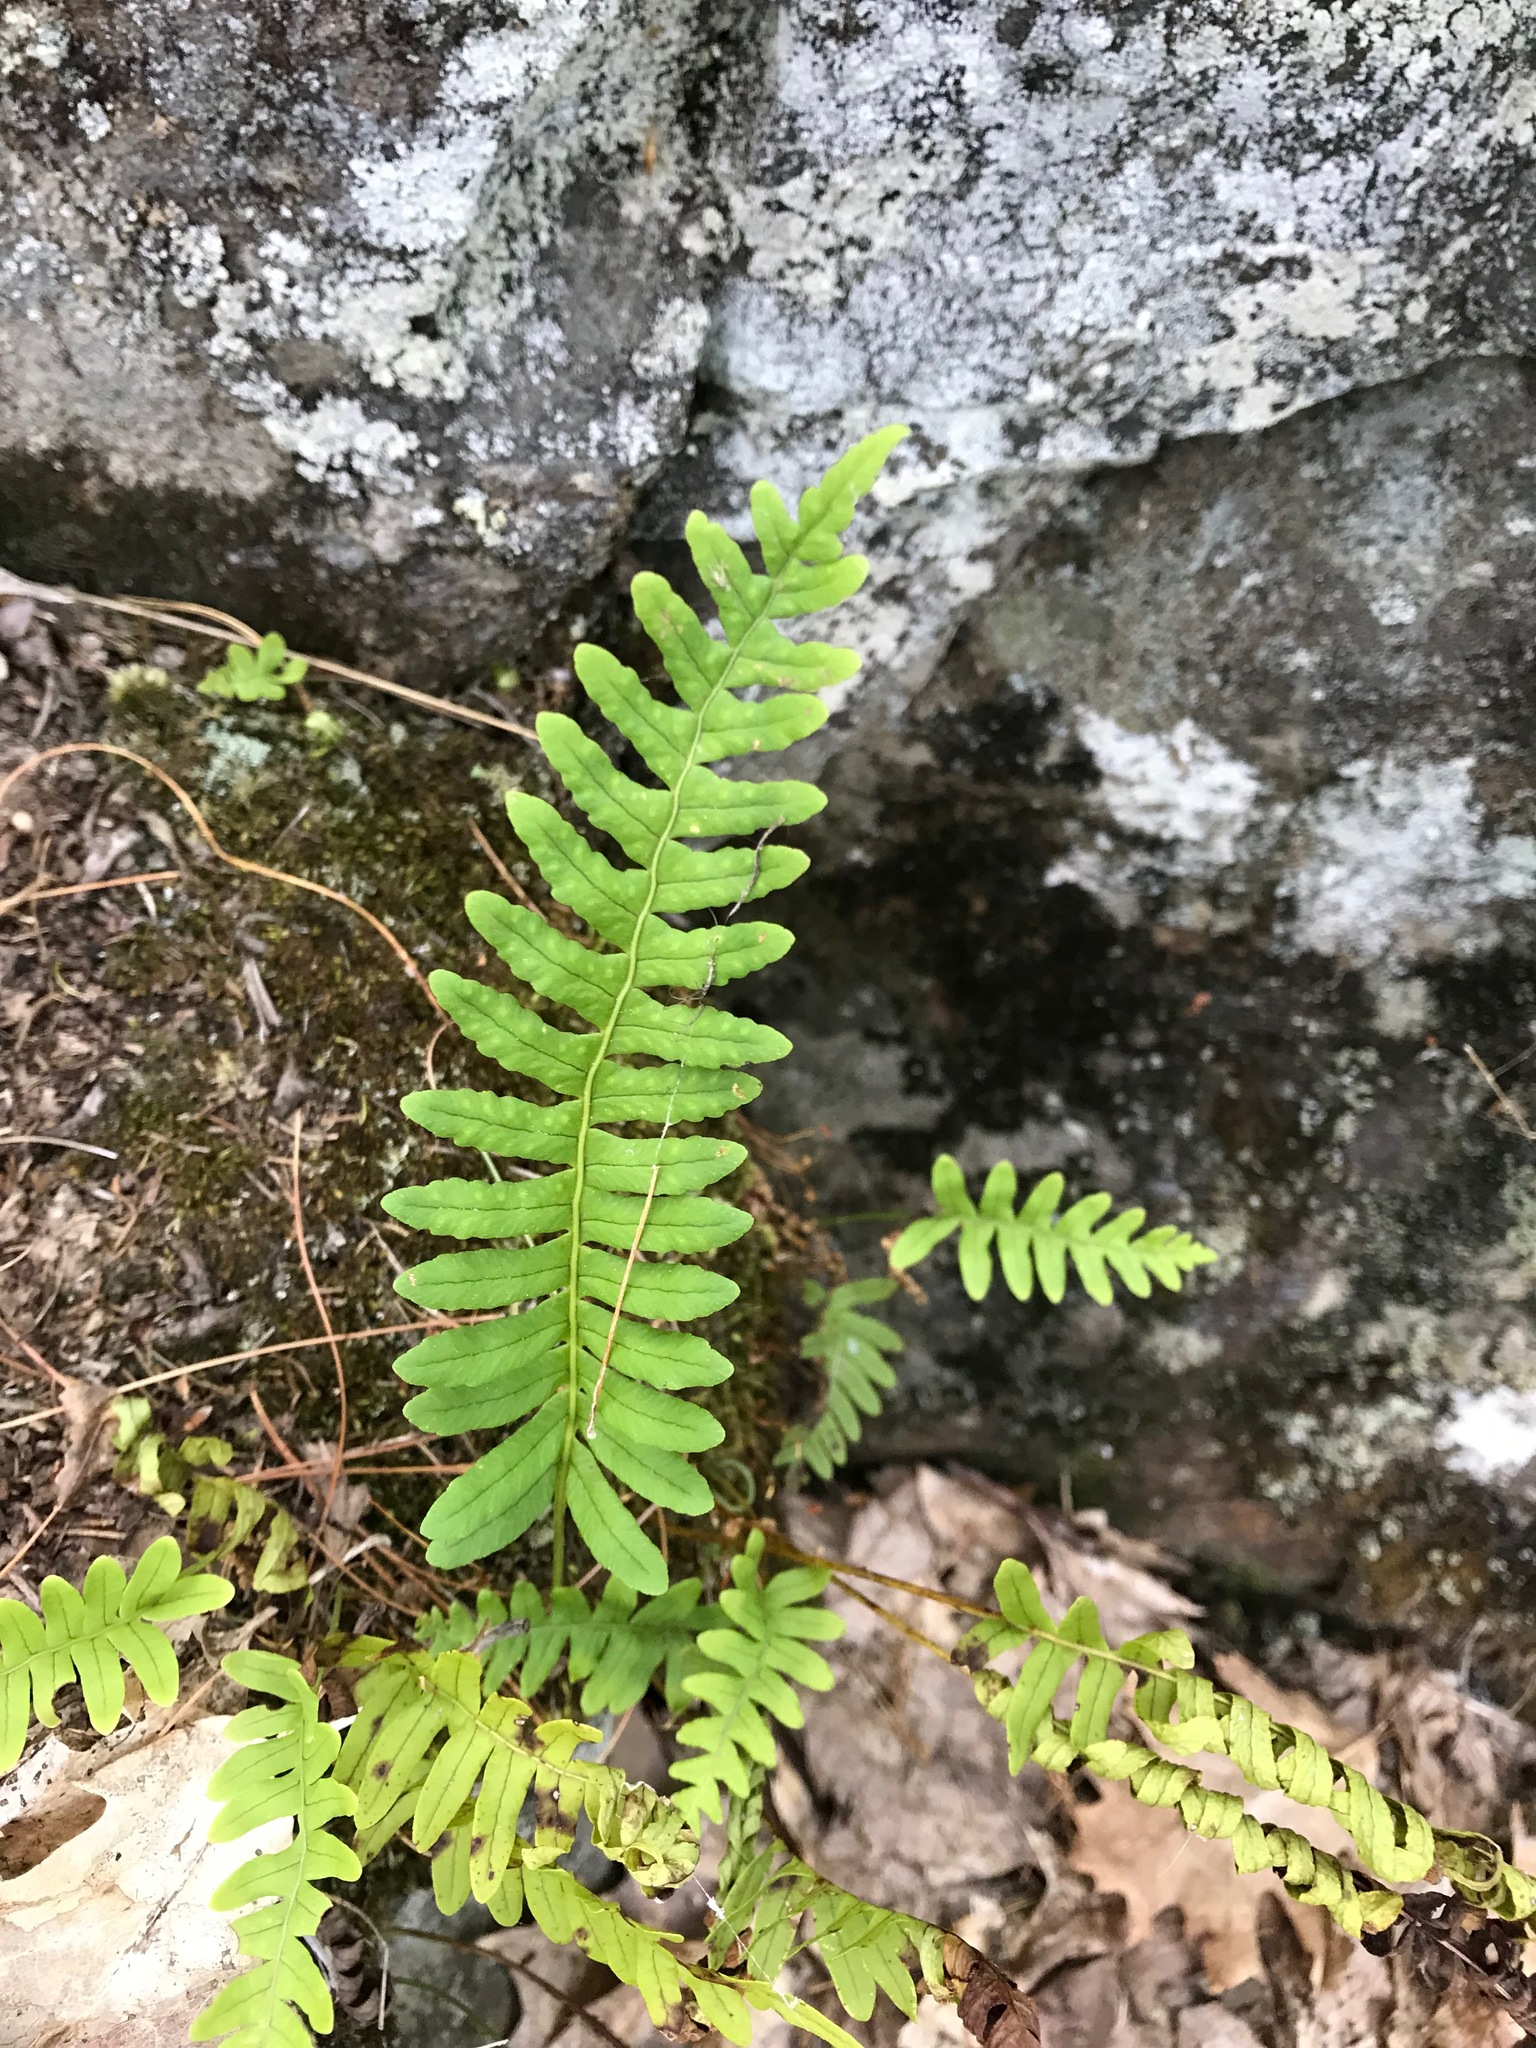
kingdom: Plantae
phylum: Tracheophyta
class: Polypodiopsida
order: Polypodiales
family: Polypodiaceae
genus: Polypodium
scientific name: Polypodium virginianum
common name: American wall fern
